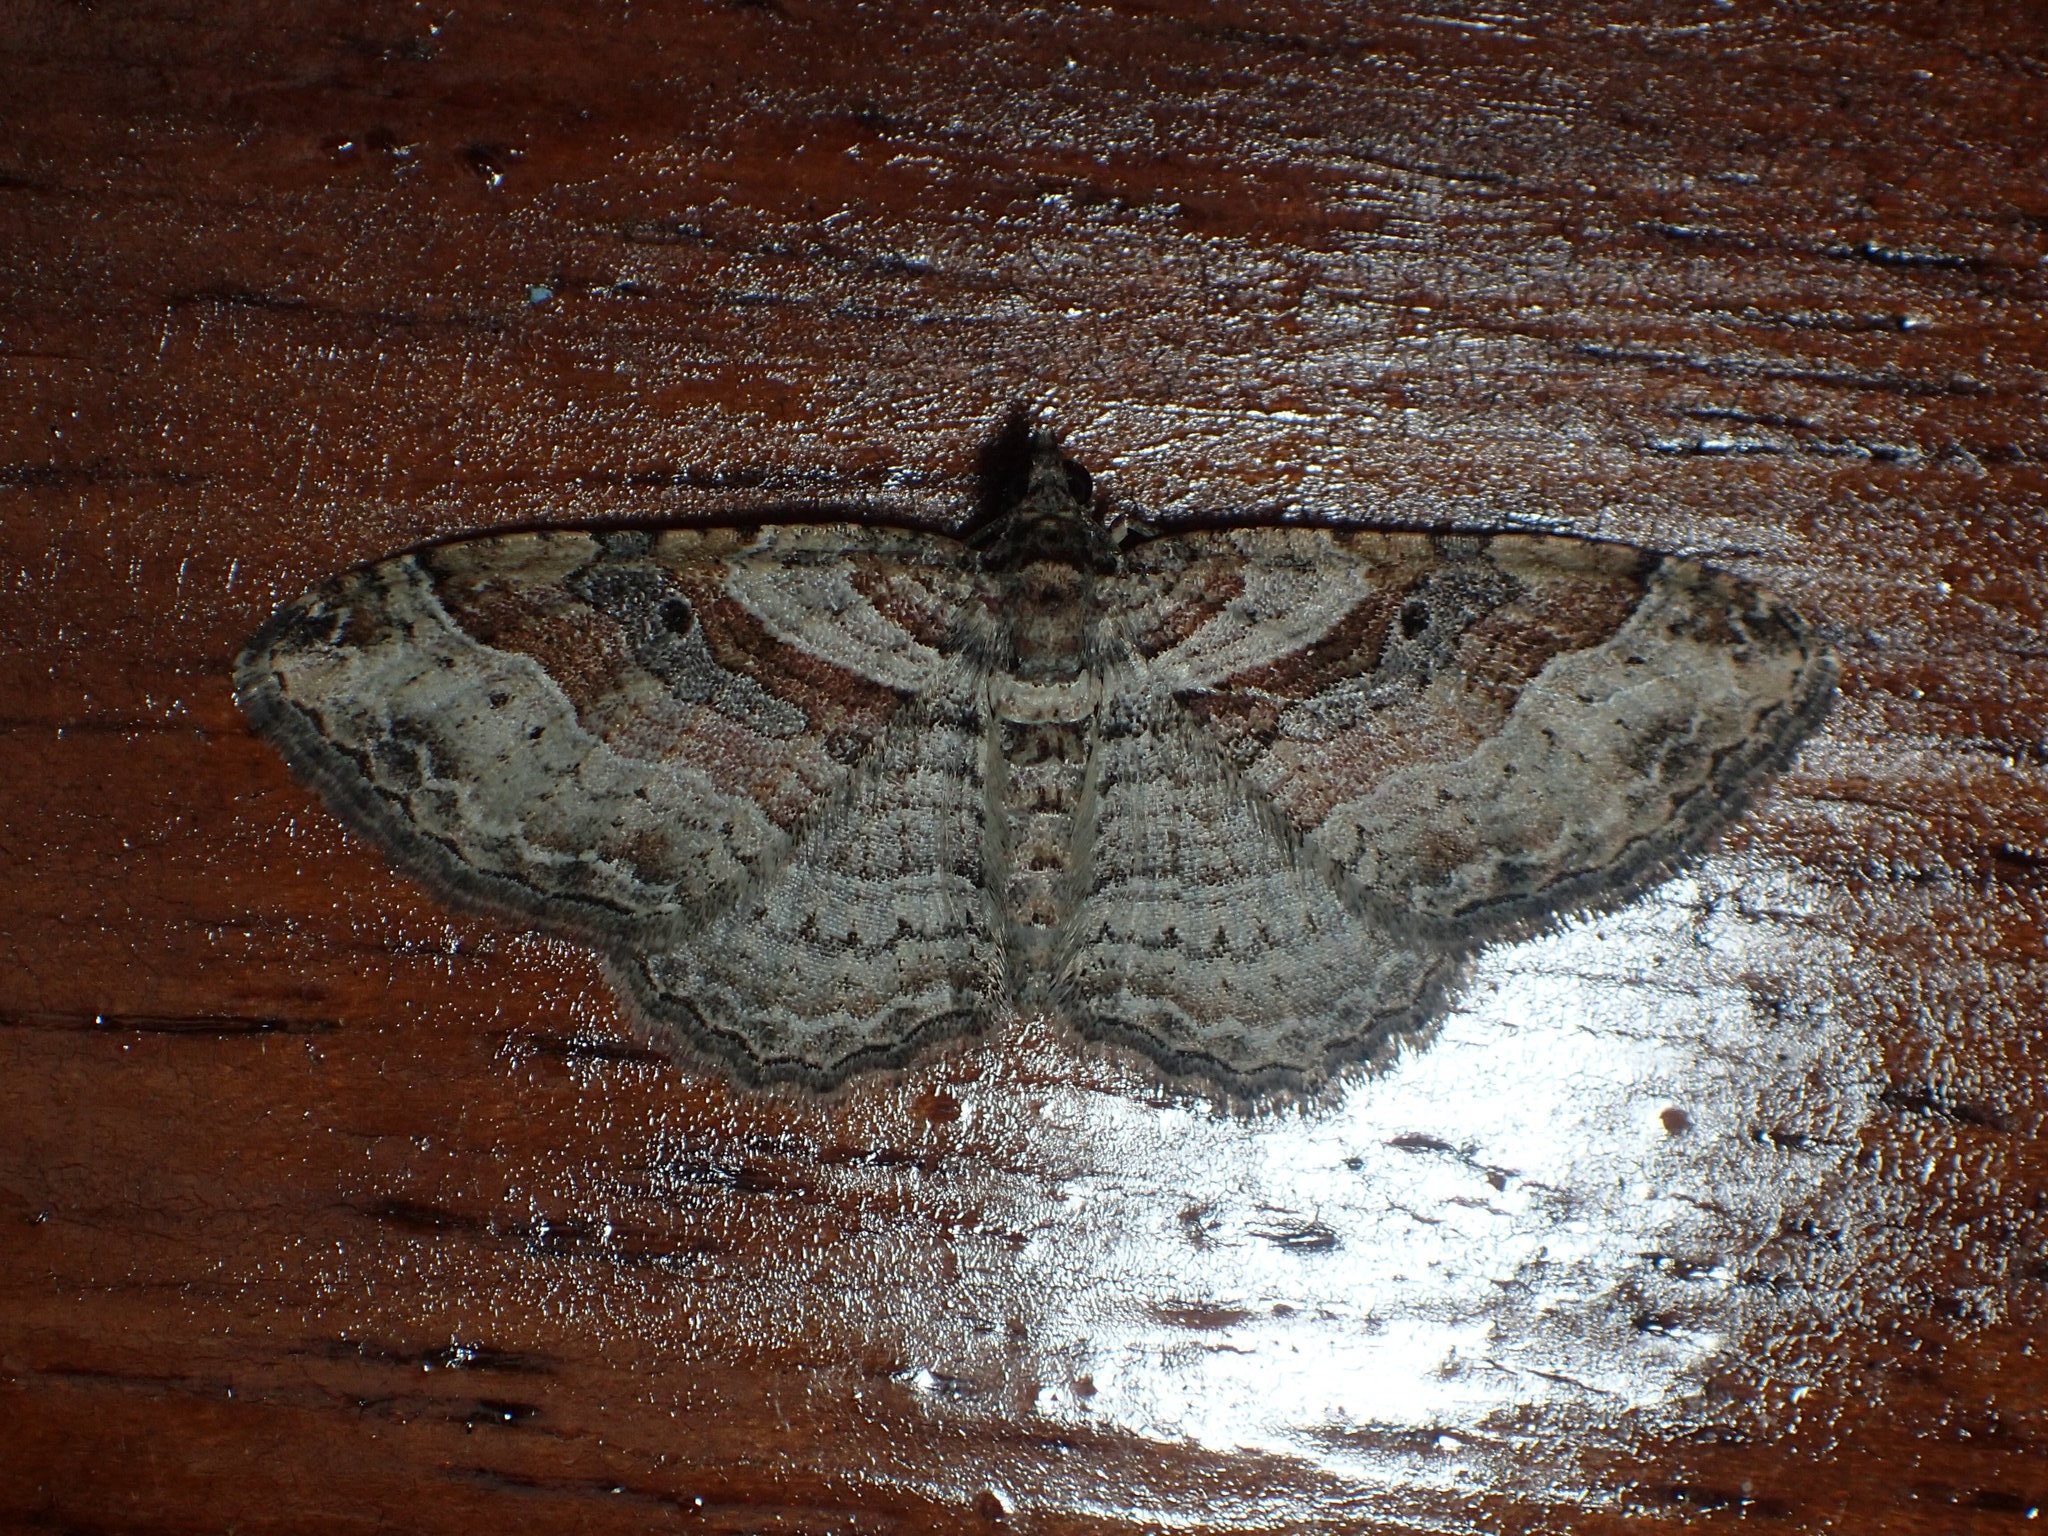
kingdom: Animalia
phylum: Arthropoda
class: Insecta
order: Lepidoptera
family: Geometridae
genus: Costaconvexa
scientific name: Costaconvexa centrostrigaria
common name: Bent-line carpet
